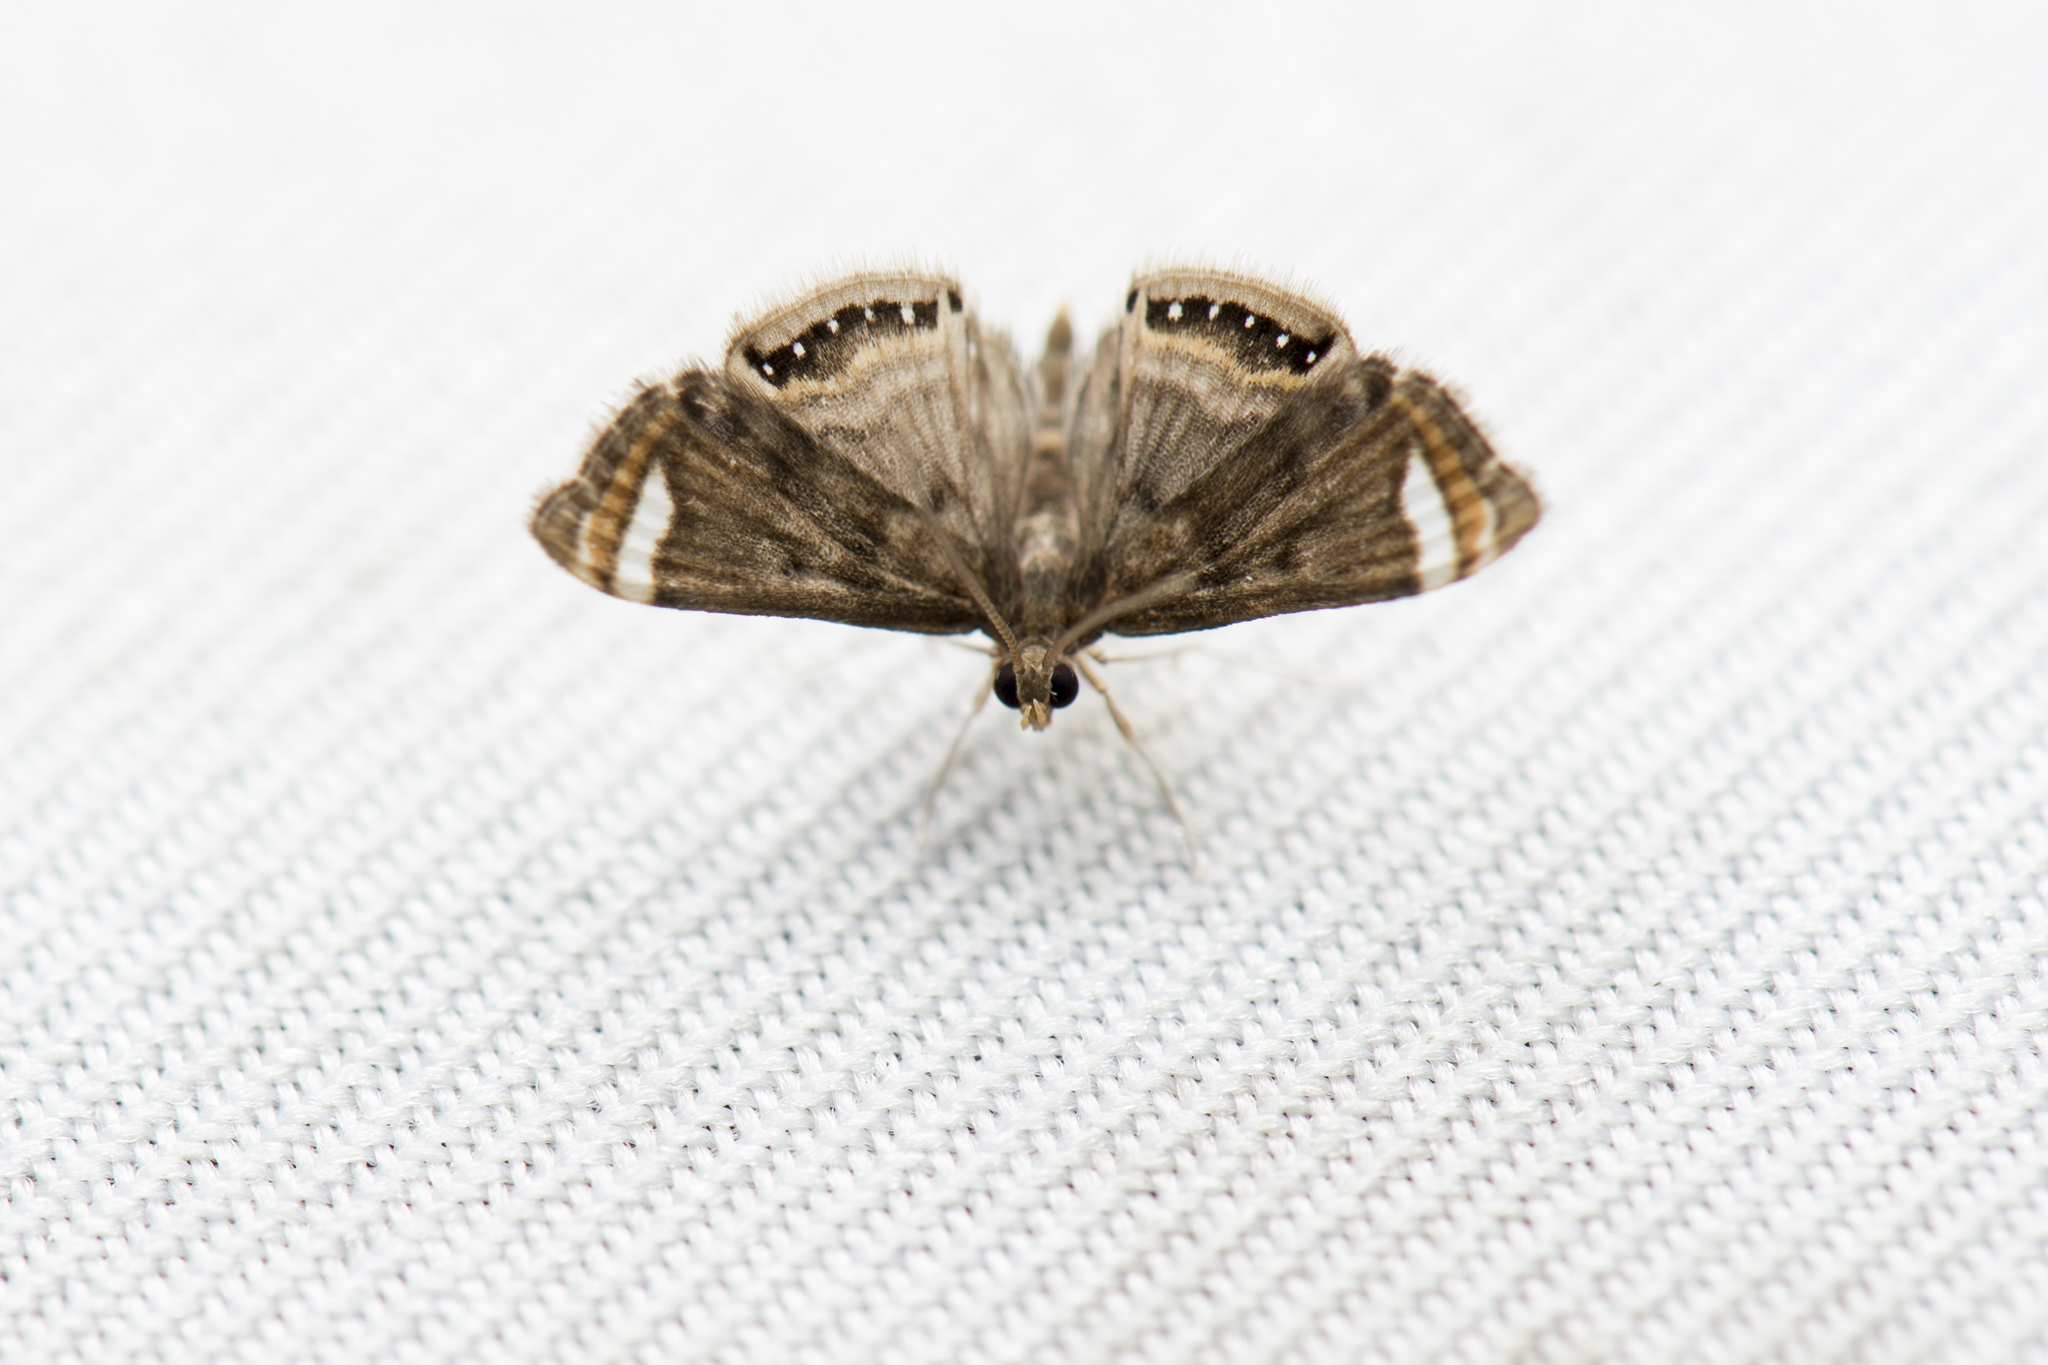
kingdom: Animalia
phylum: Arthropoda
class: Insecta
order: Lepidoptera
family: Crambidae
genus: Cataclysta
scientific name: Cataclysta albidentata
